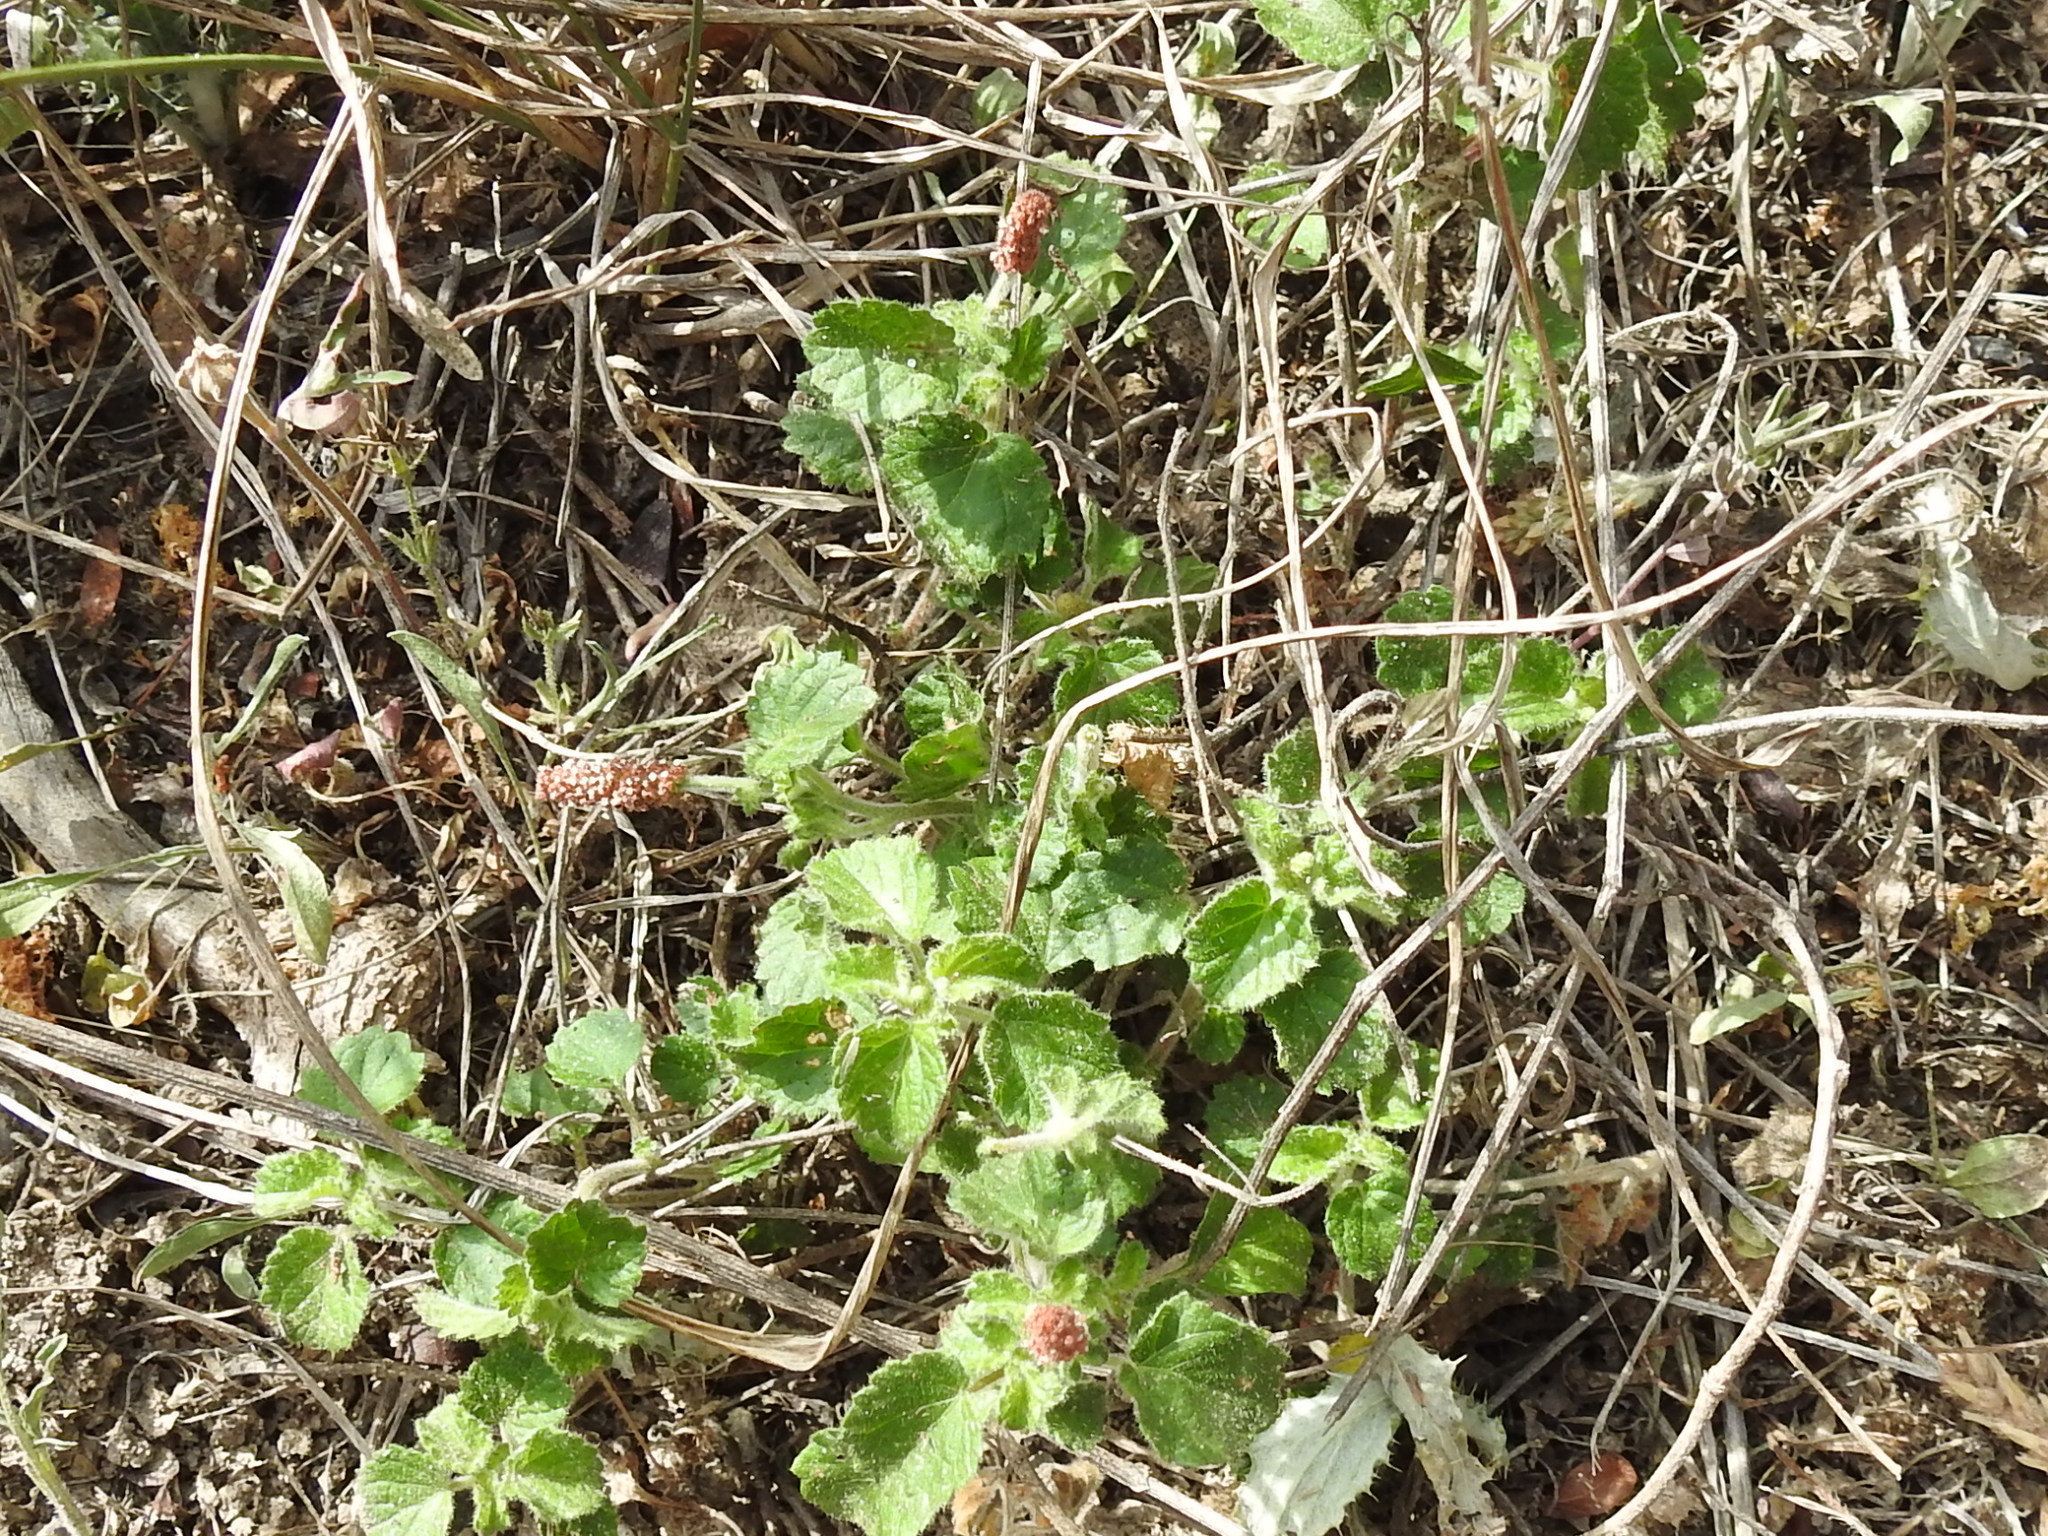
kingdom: Plantae
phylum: Tracheophyta
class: Magnoliopsida
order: Malpighiales
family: Euphorbiaceae
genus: Acalypha
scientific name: Acalypha monostachya
